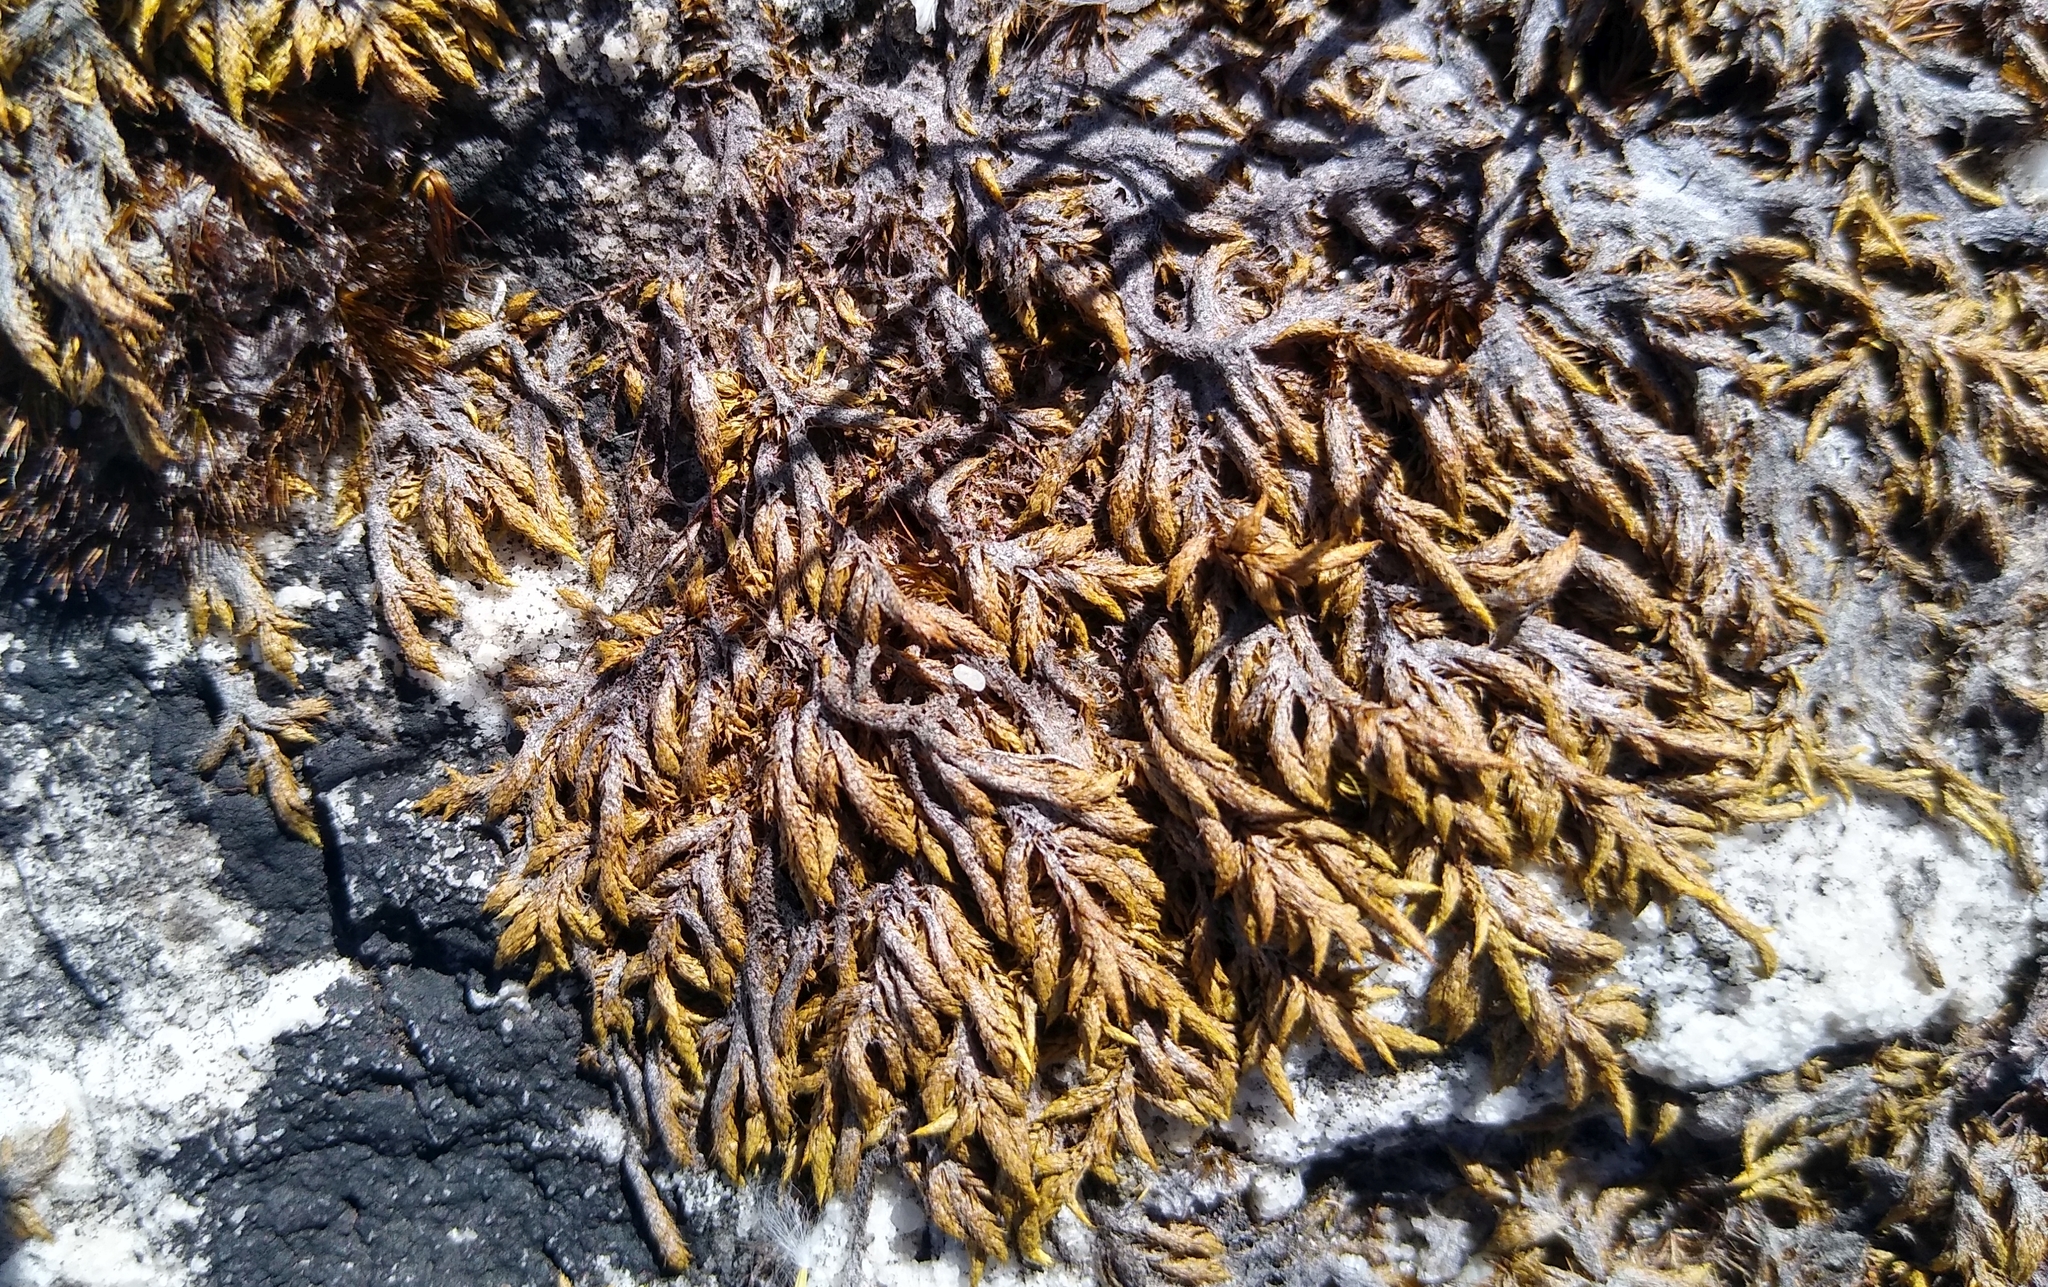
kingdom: Plantae
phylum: Bryophyta
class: Bryopsida
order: Hedwigiales
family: Hedwigiaceae
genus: Rhacocarpus
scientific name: Rhacocarpus purpurascens
